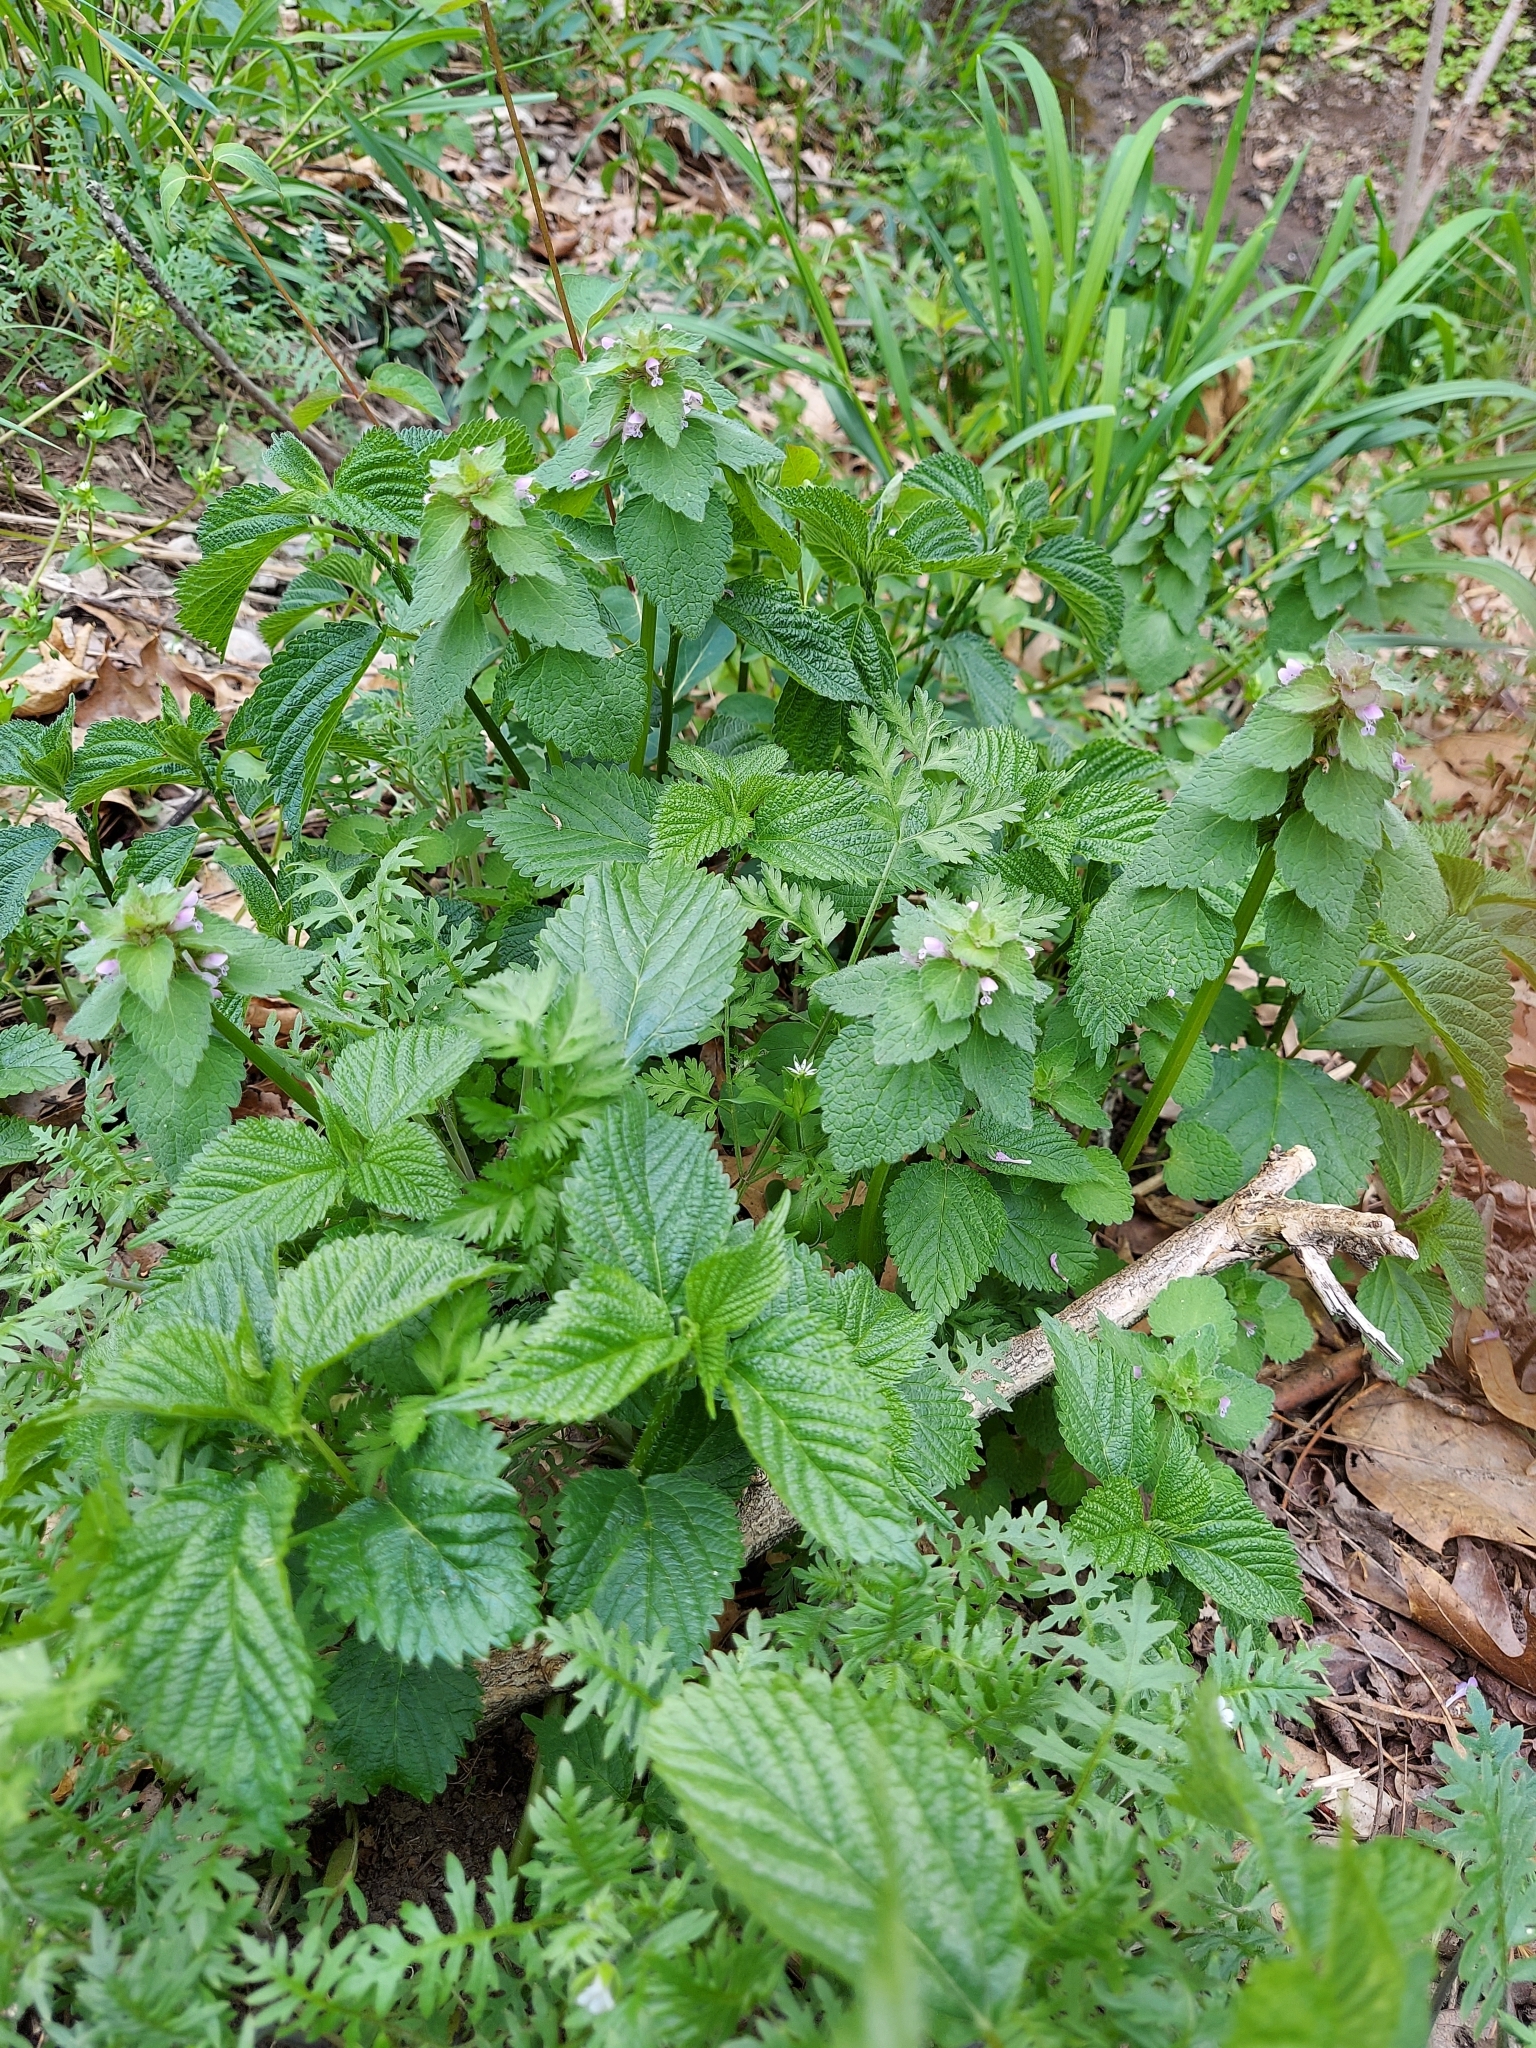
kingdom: Plantae
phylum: Tracheophyta
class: Magnoliopsida
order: Lamiales
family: Lamiaceae
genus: Lamium
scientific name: Lamium purpureum
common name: Red dead-nettle
